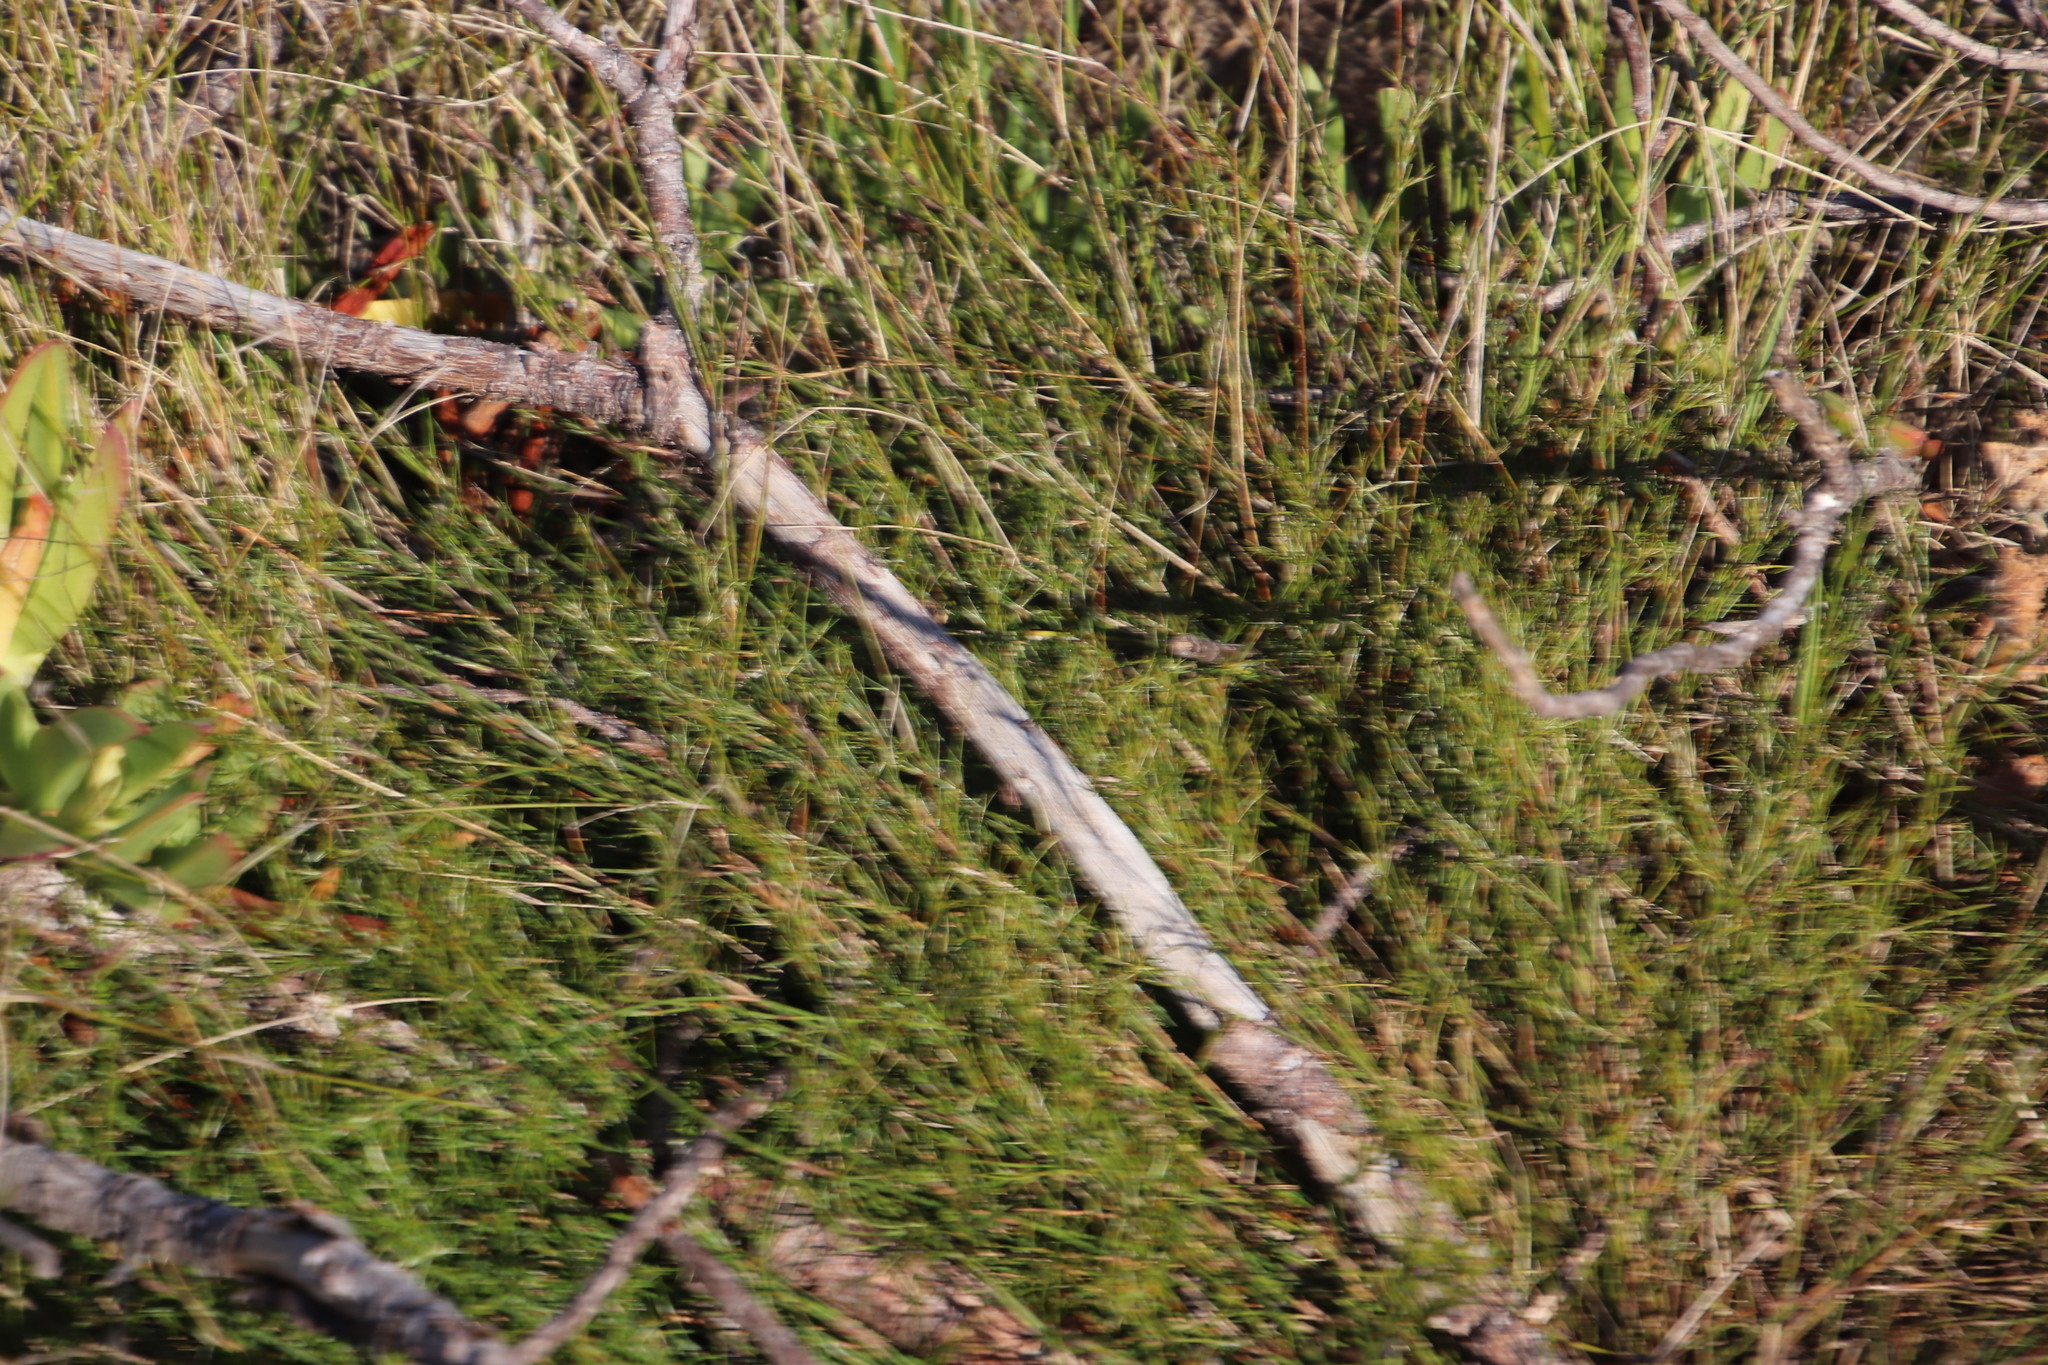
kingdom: Plantae
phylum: Tracheophyta
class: Liliopsida
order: Poales
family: Restionaceae
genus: Restio
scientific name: Restio capensis
